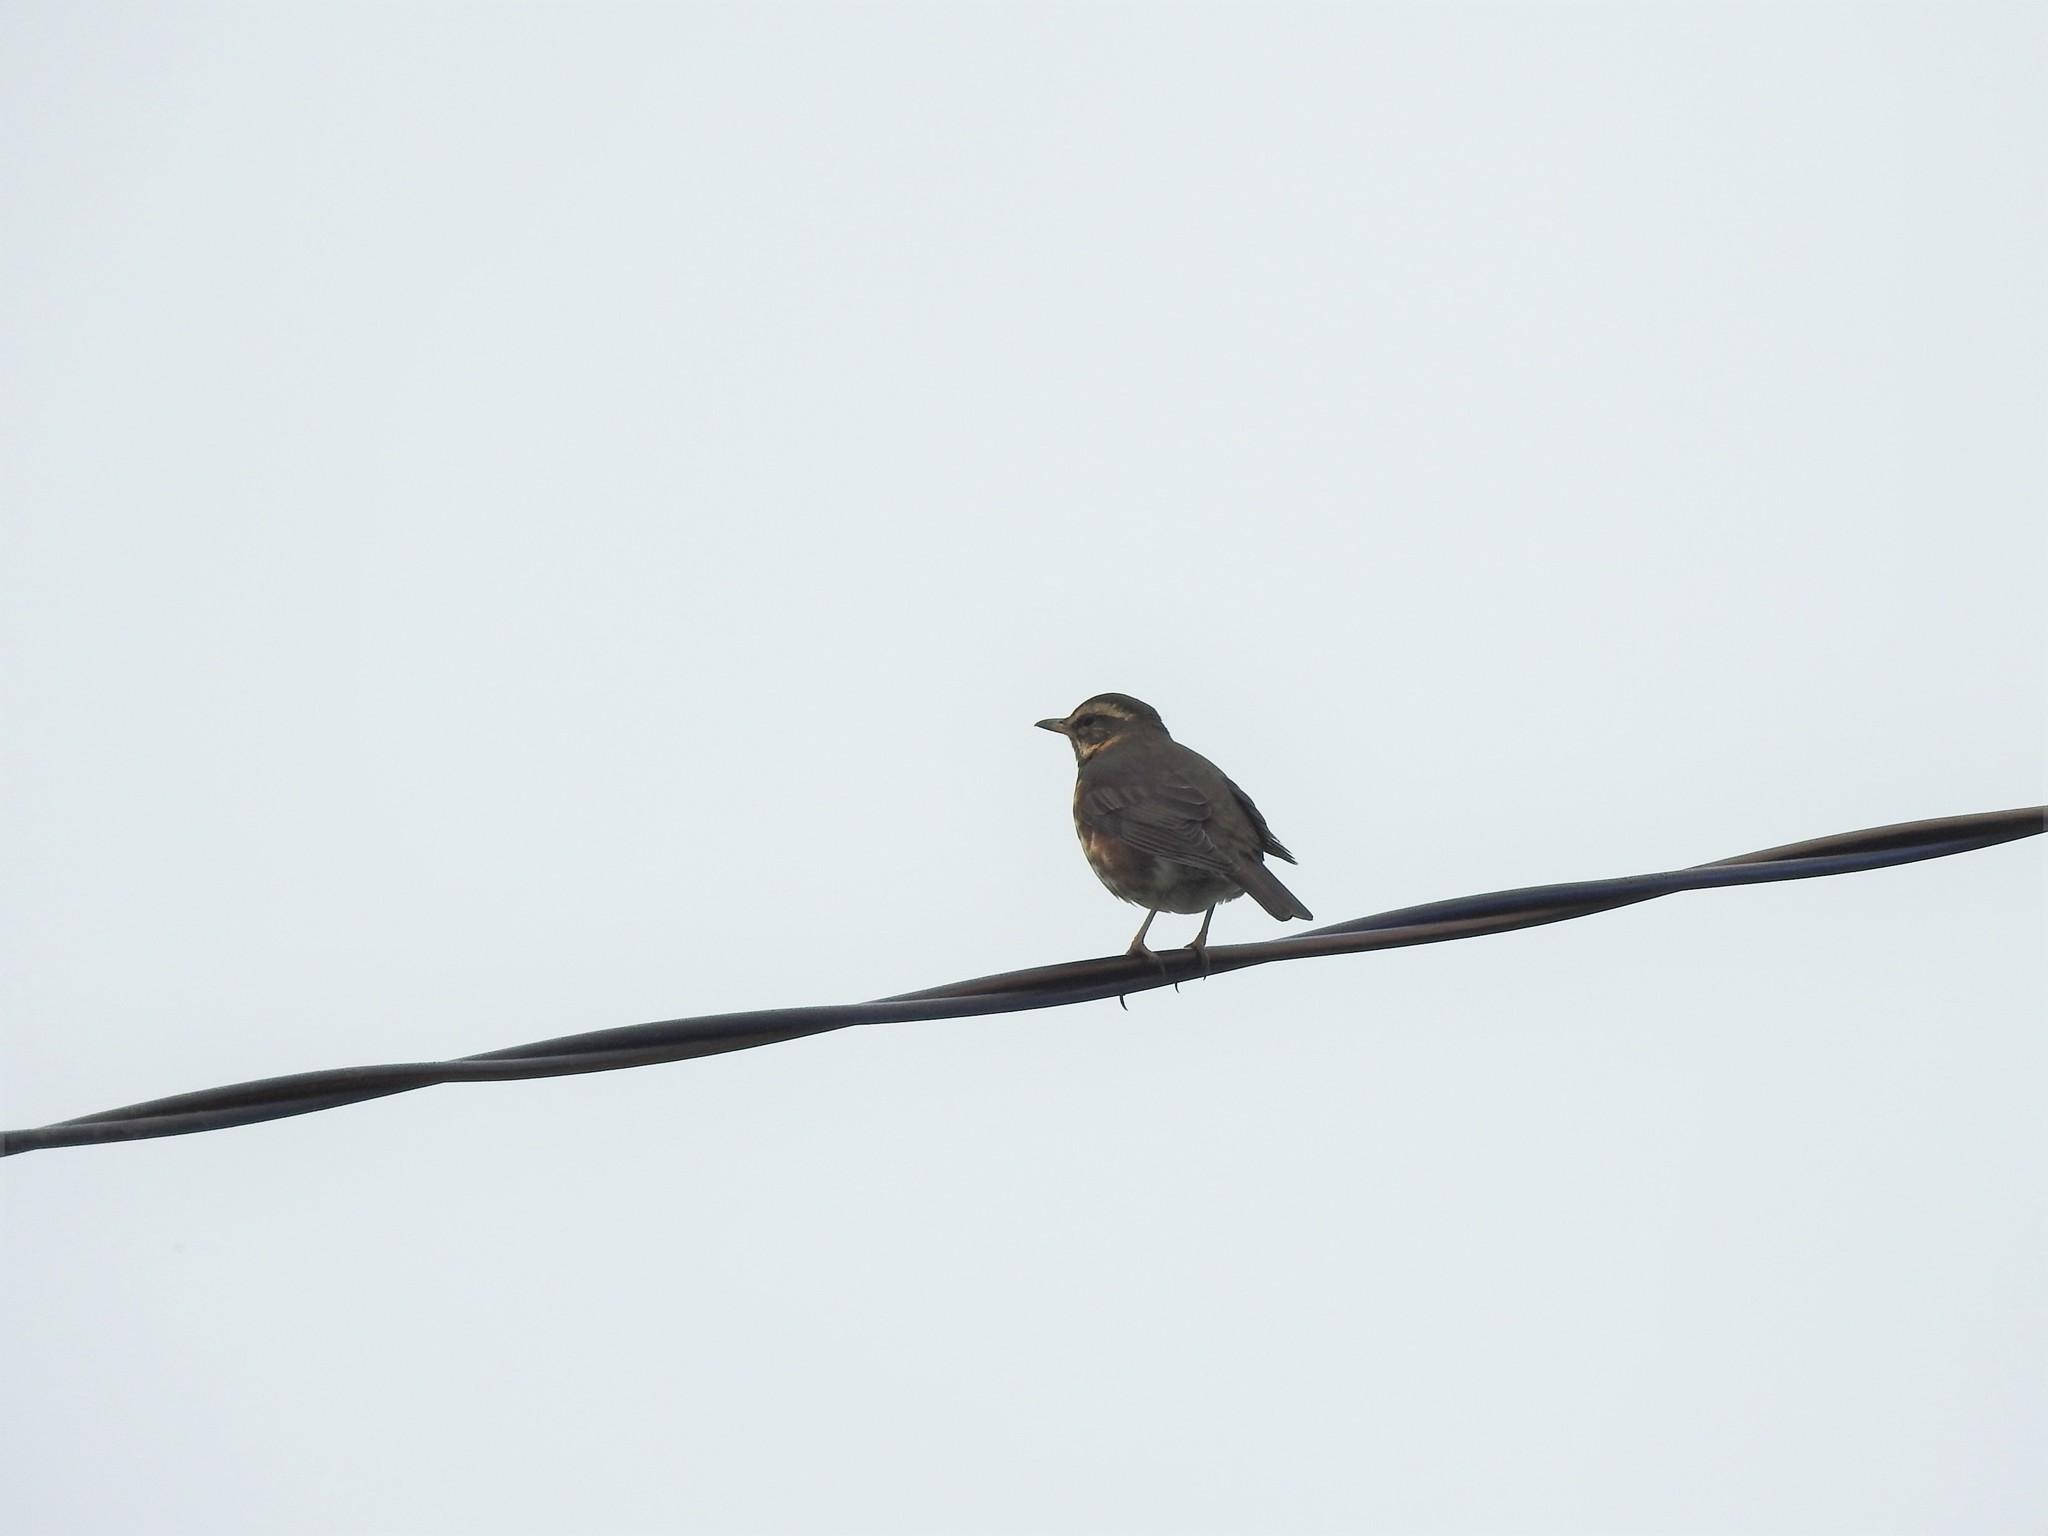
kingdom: Animalia
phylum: Chordata
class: Aves
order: Passeriformes
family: Turdidae
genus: Turdus
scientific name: Turdus iliacus
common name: Redwing
